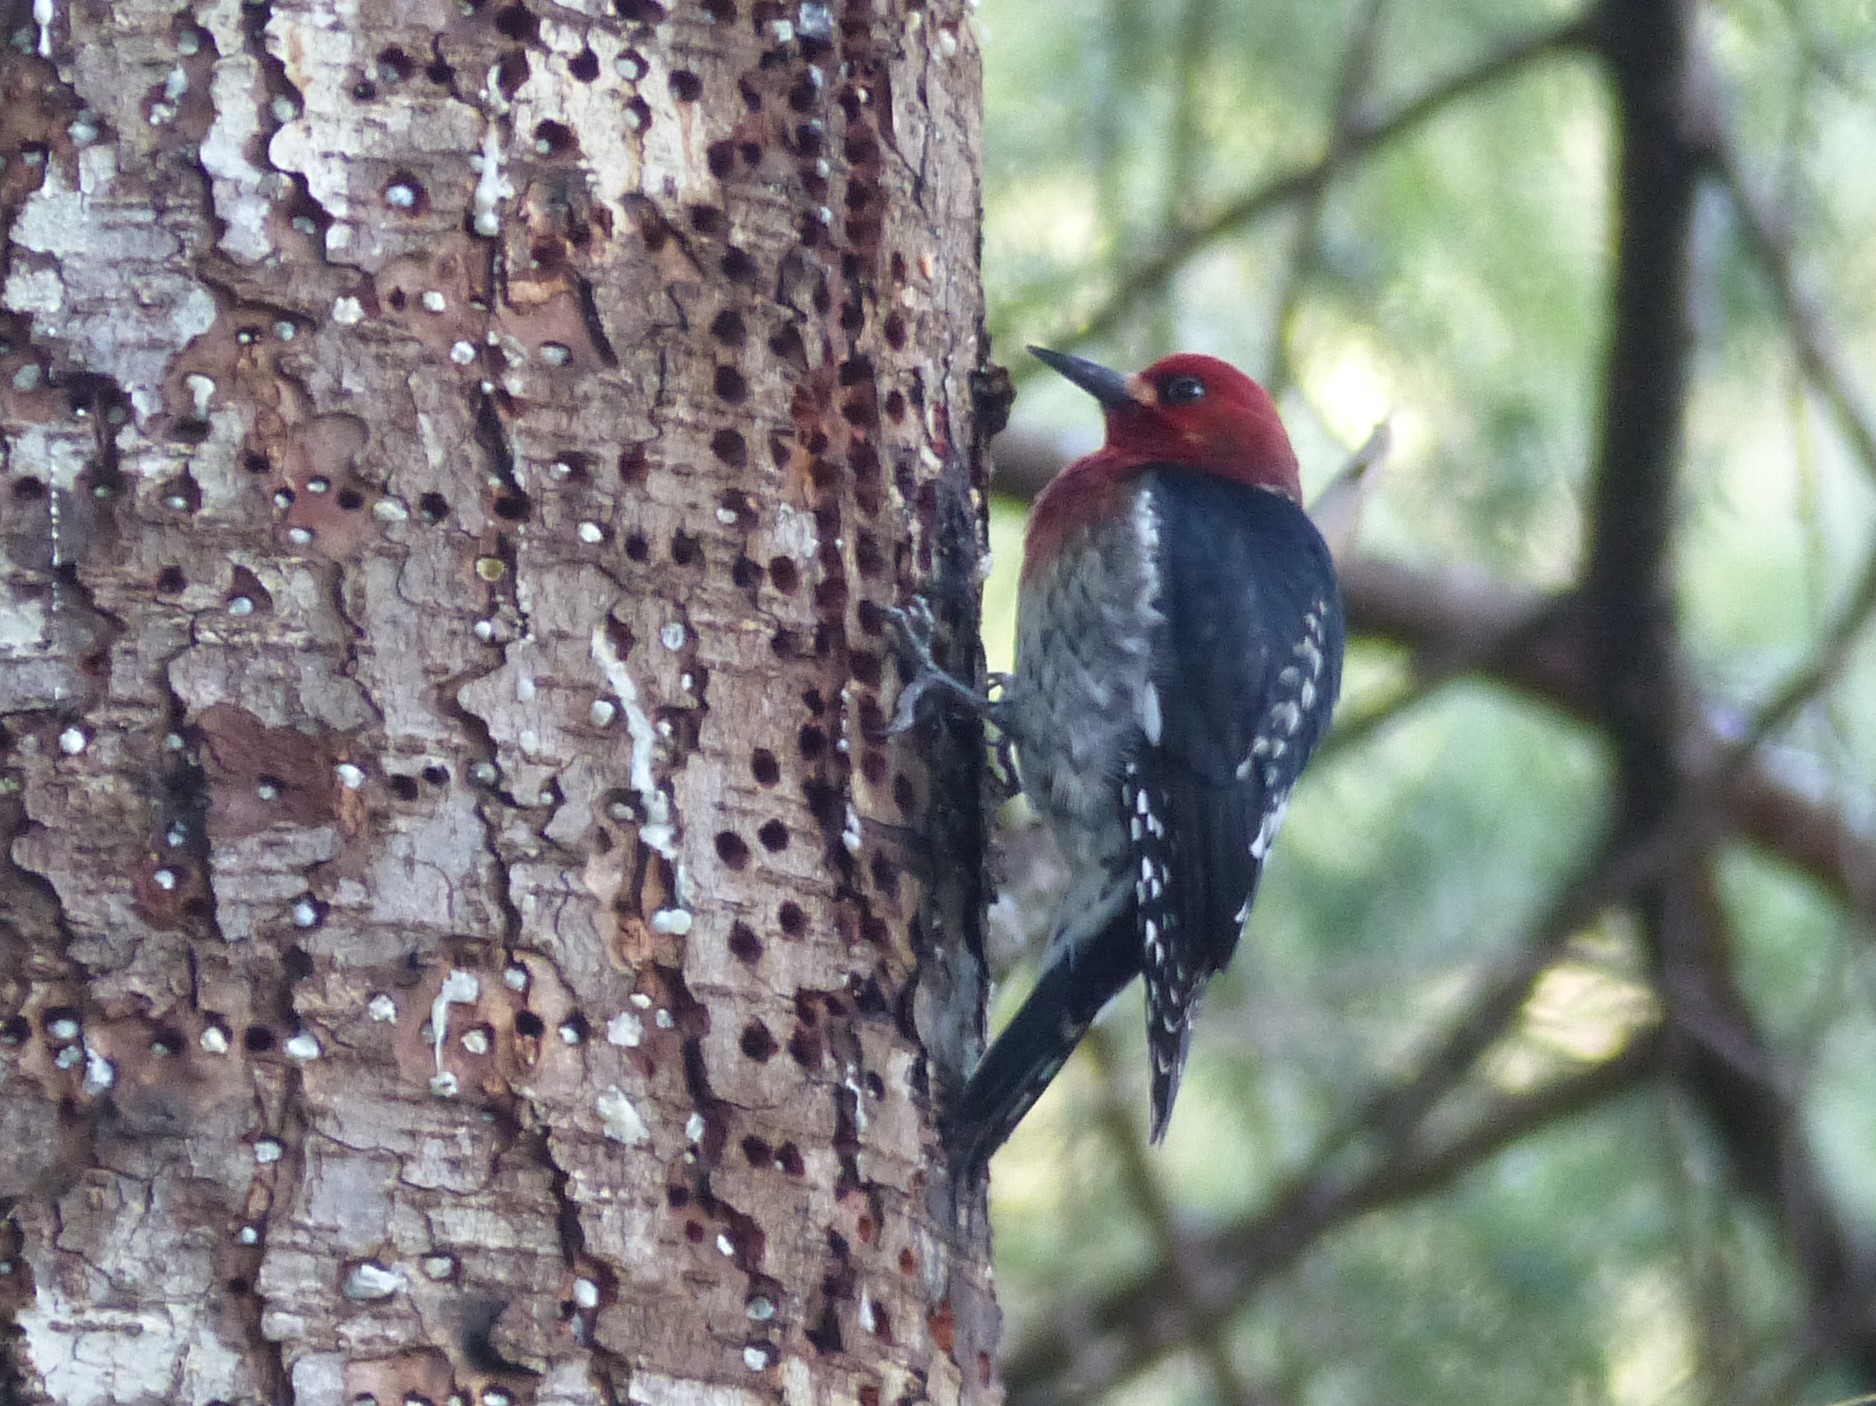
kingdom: Animalia
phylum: Chordata
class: Aves
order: Piciformes
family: Picidae
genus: Sphyrapicus
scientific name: Sphyrapicus ruber
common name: Red-breasted sapsucker
